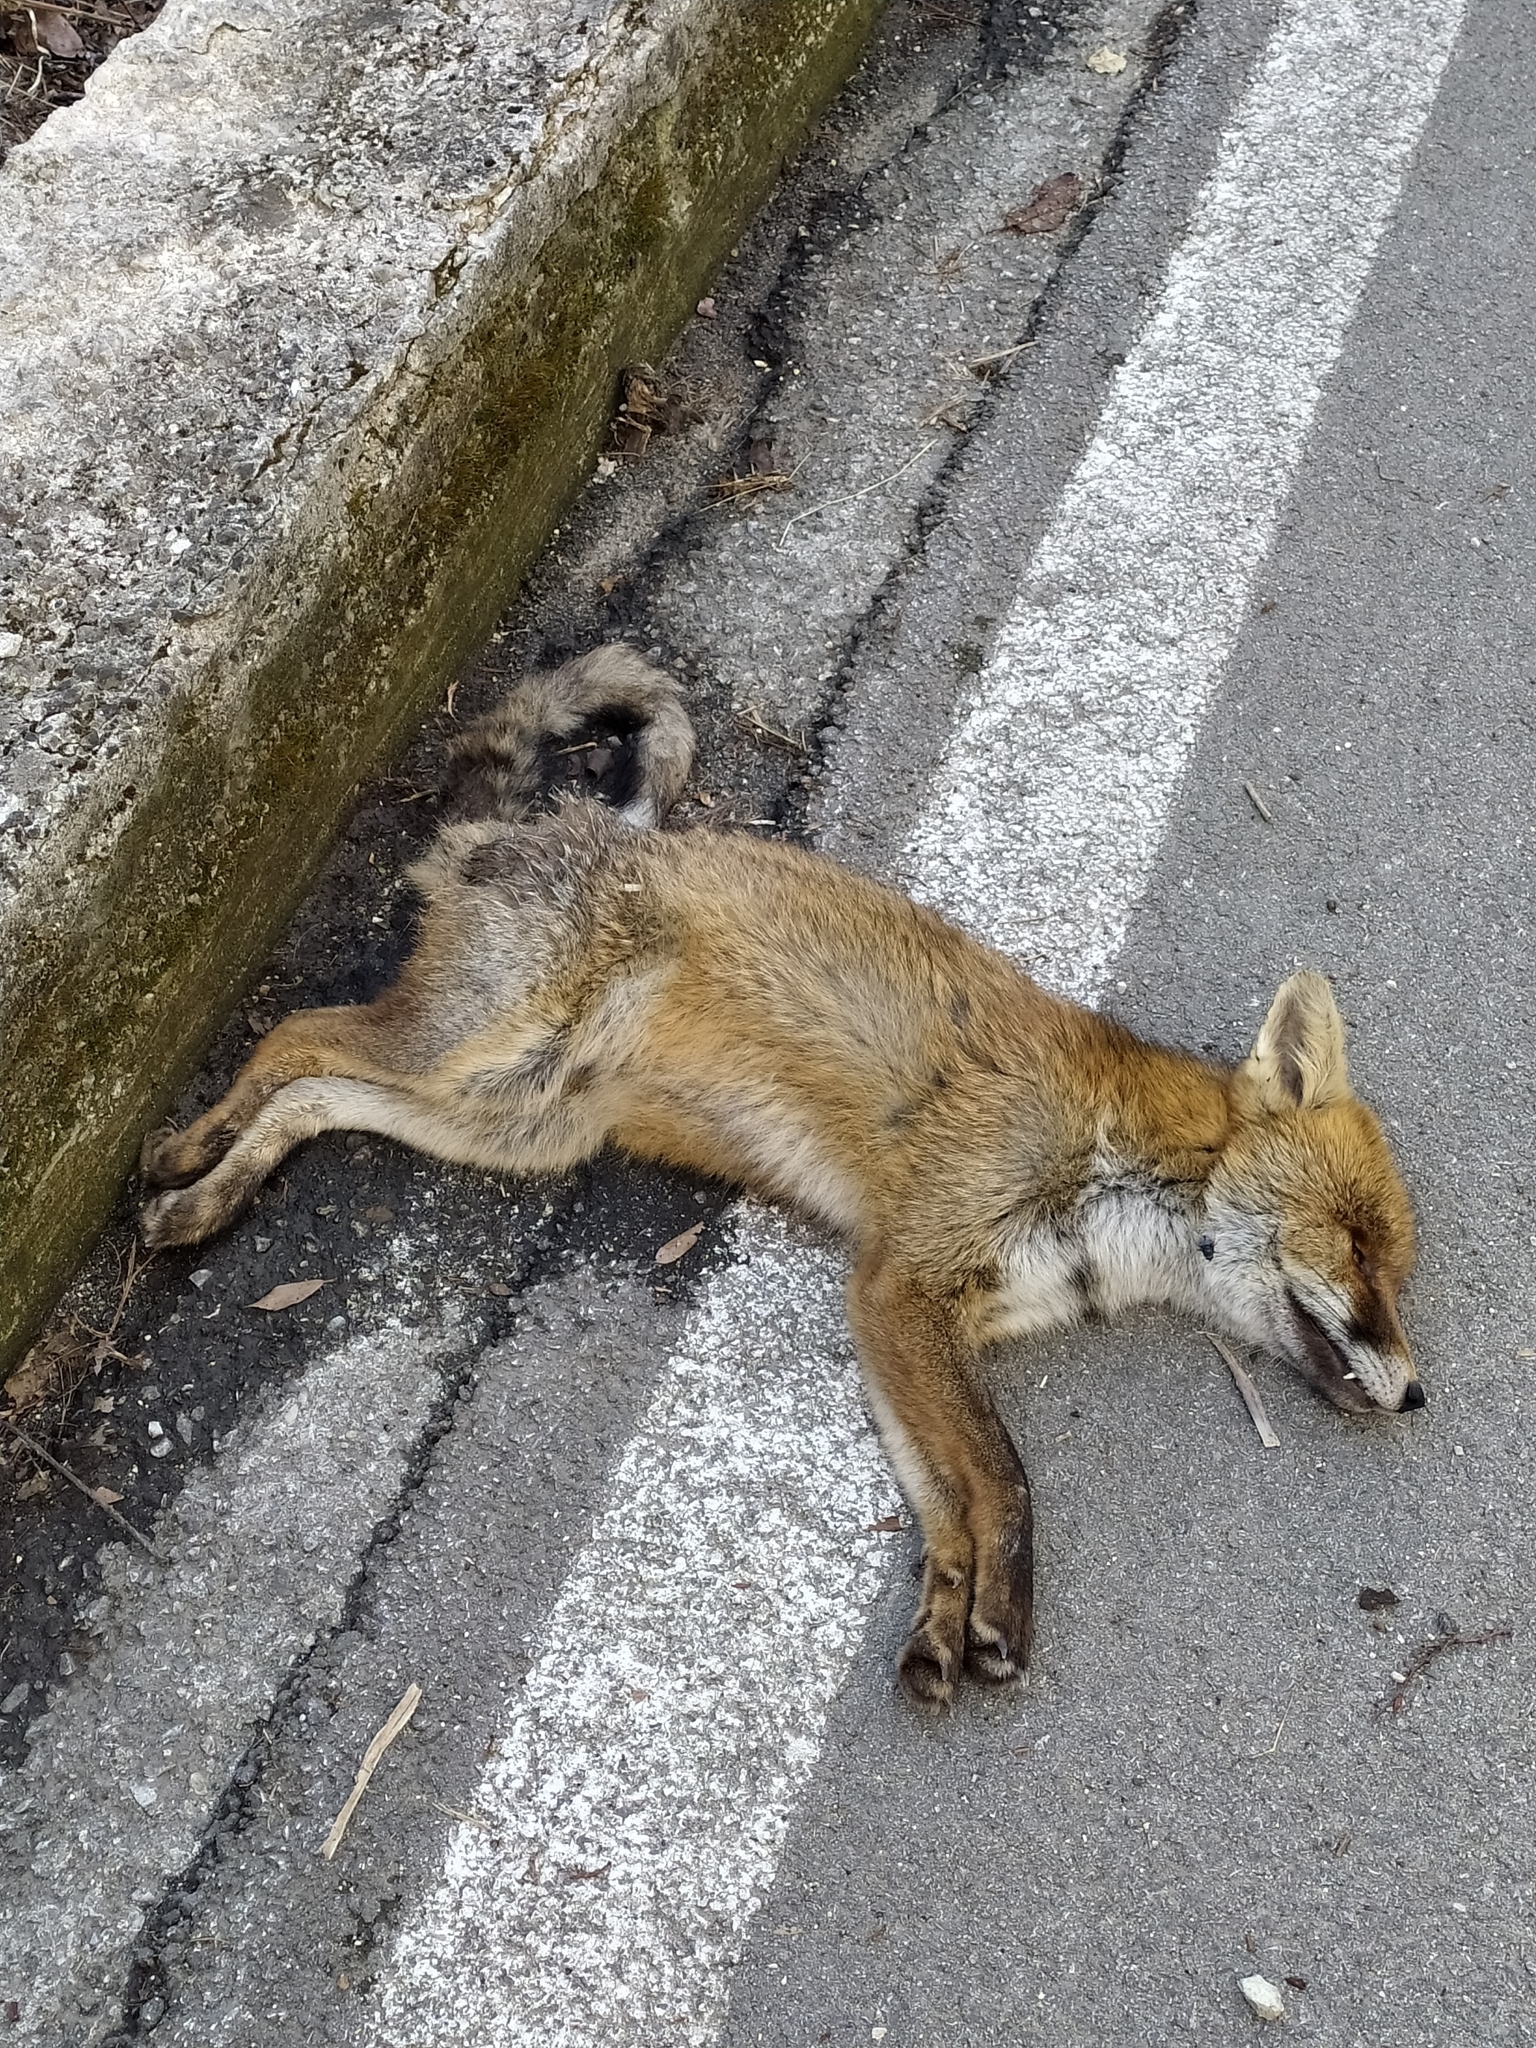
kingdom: Animalia
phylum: Chordata
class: Mammalia
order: Carnivora
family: Canidae
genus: Vulpes
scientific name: Vulpes vulpes
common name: Red fox
